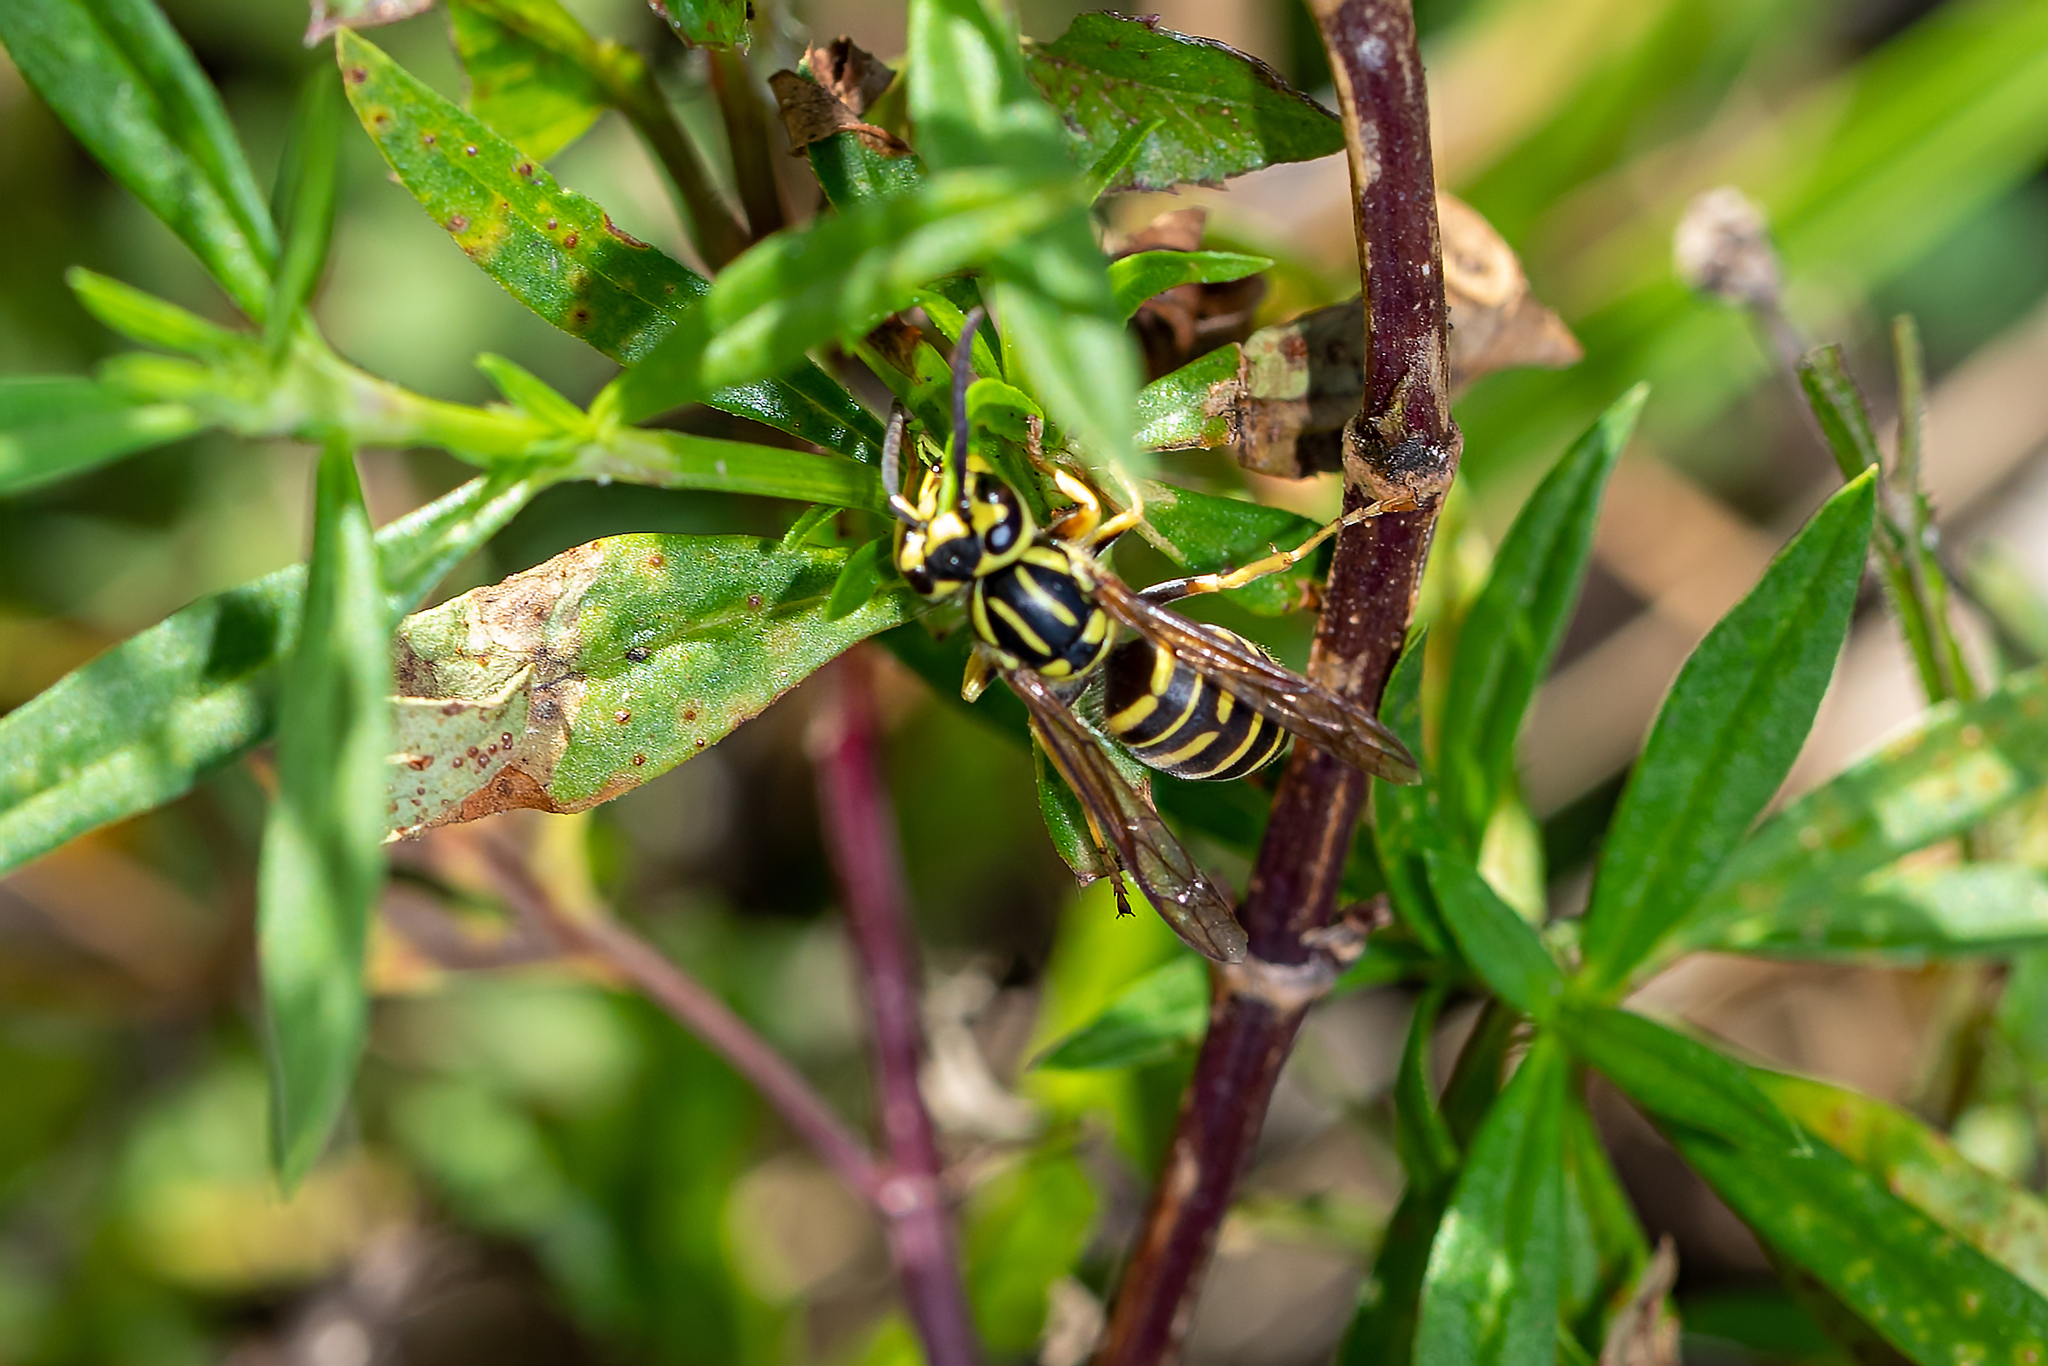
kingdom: Animalia
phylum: Arthropoda
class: Insecta
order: Hymenoptera
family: Vespidae
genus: Vespula
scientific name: Vespula squamosa
